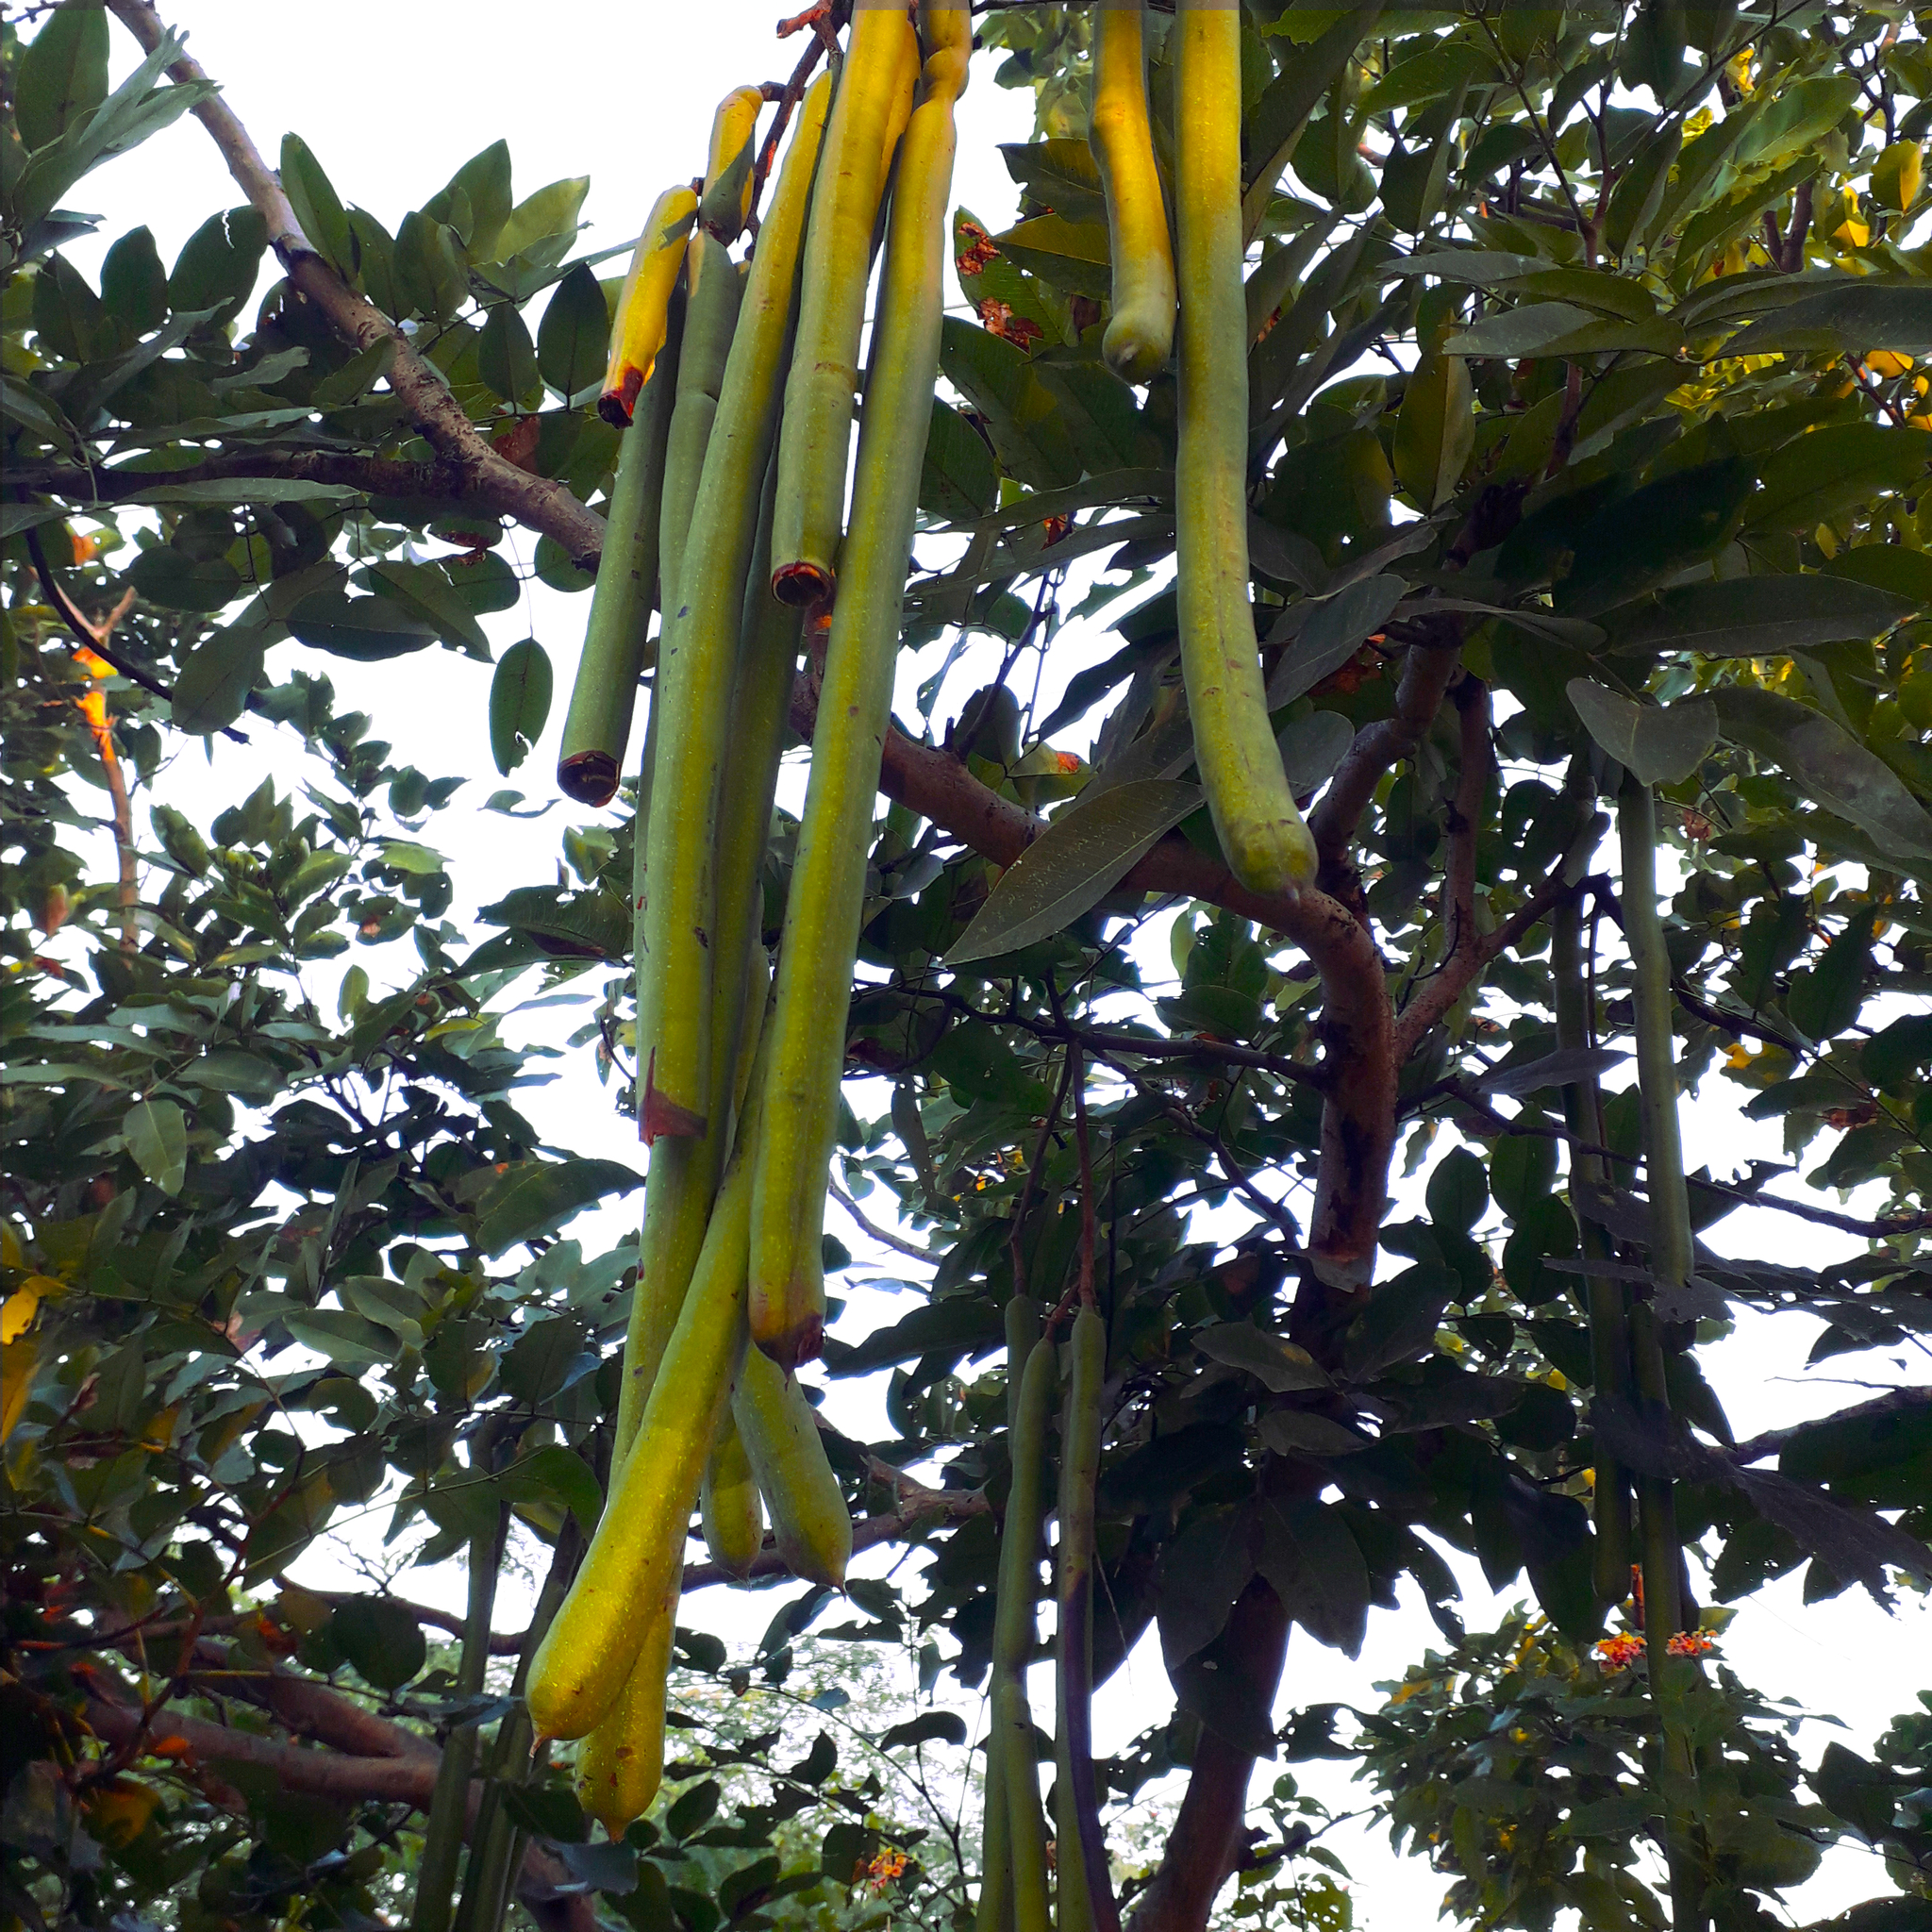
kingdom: Plantae
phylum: Tracheophyta
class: Magnoliopsida
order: Fabales
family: Fabaceae
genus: Cassia
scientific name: Cassia fistula
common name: Golden shower
